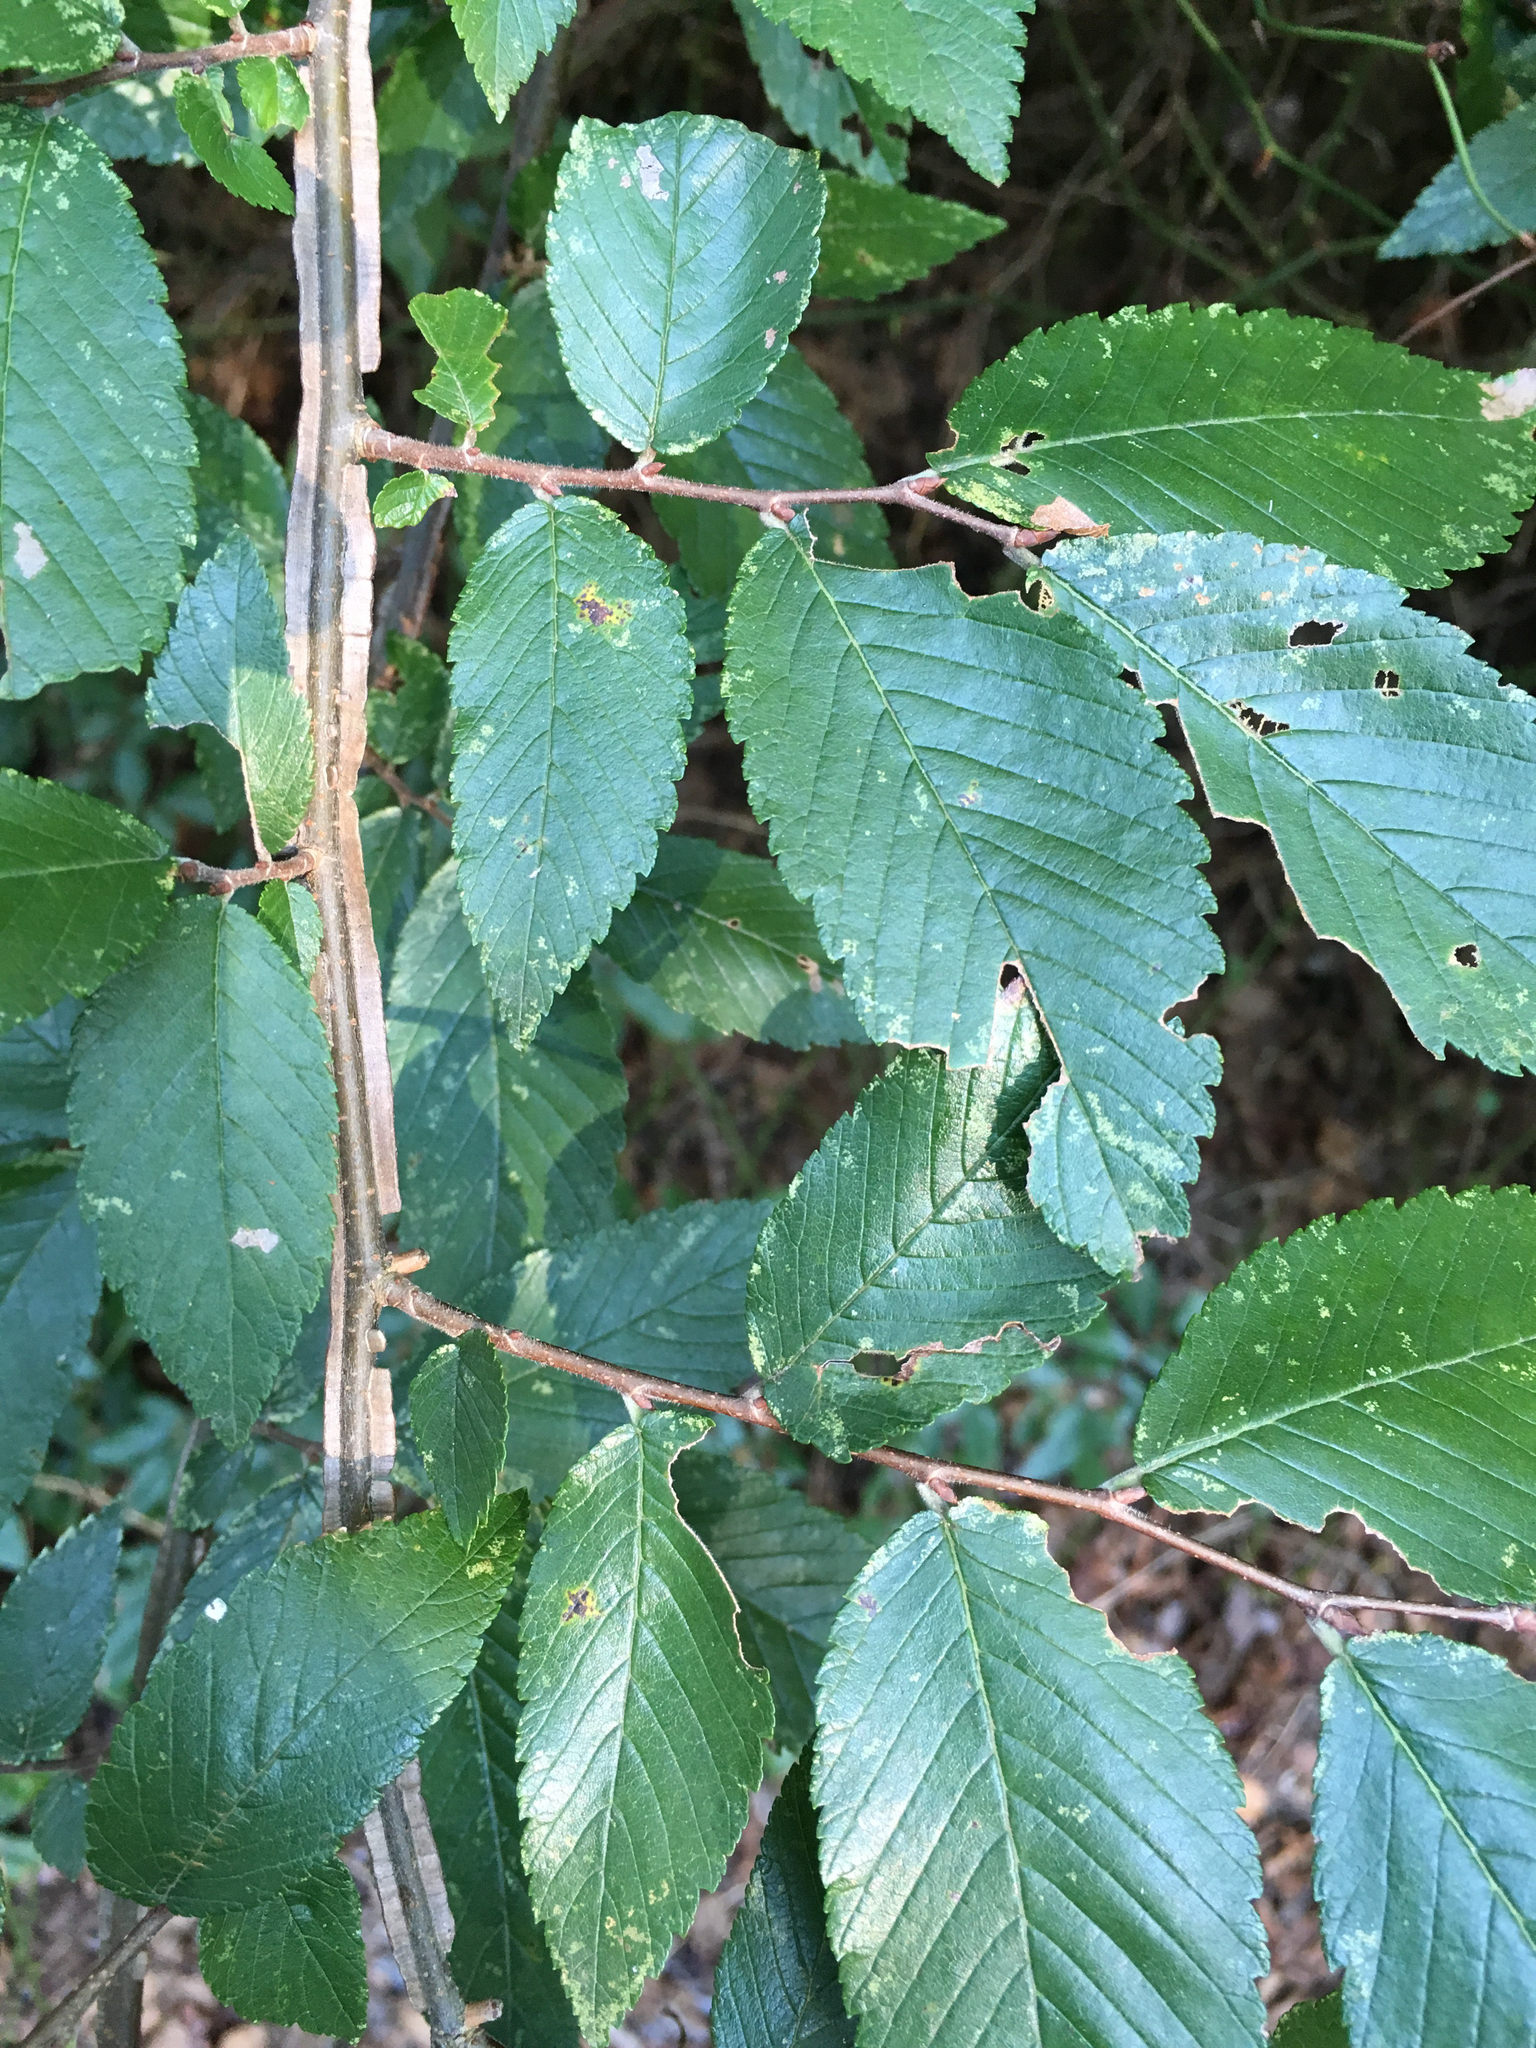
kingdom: Plantae
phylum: Tracheophyta
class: Magnoliopsida
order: Rosales
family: Ulmaceae
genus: Ulmus
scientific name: Ulmus alata
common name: Winged elm
